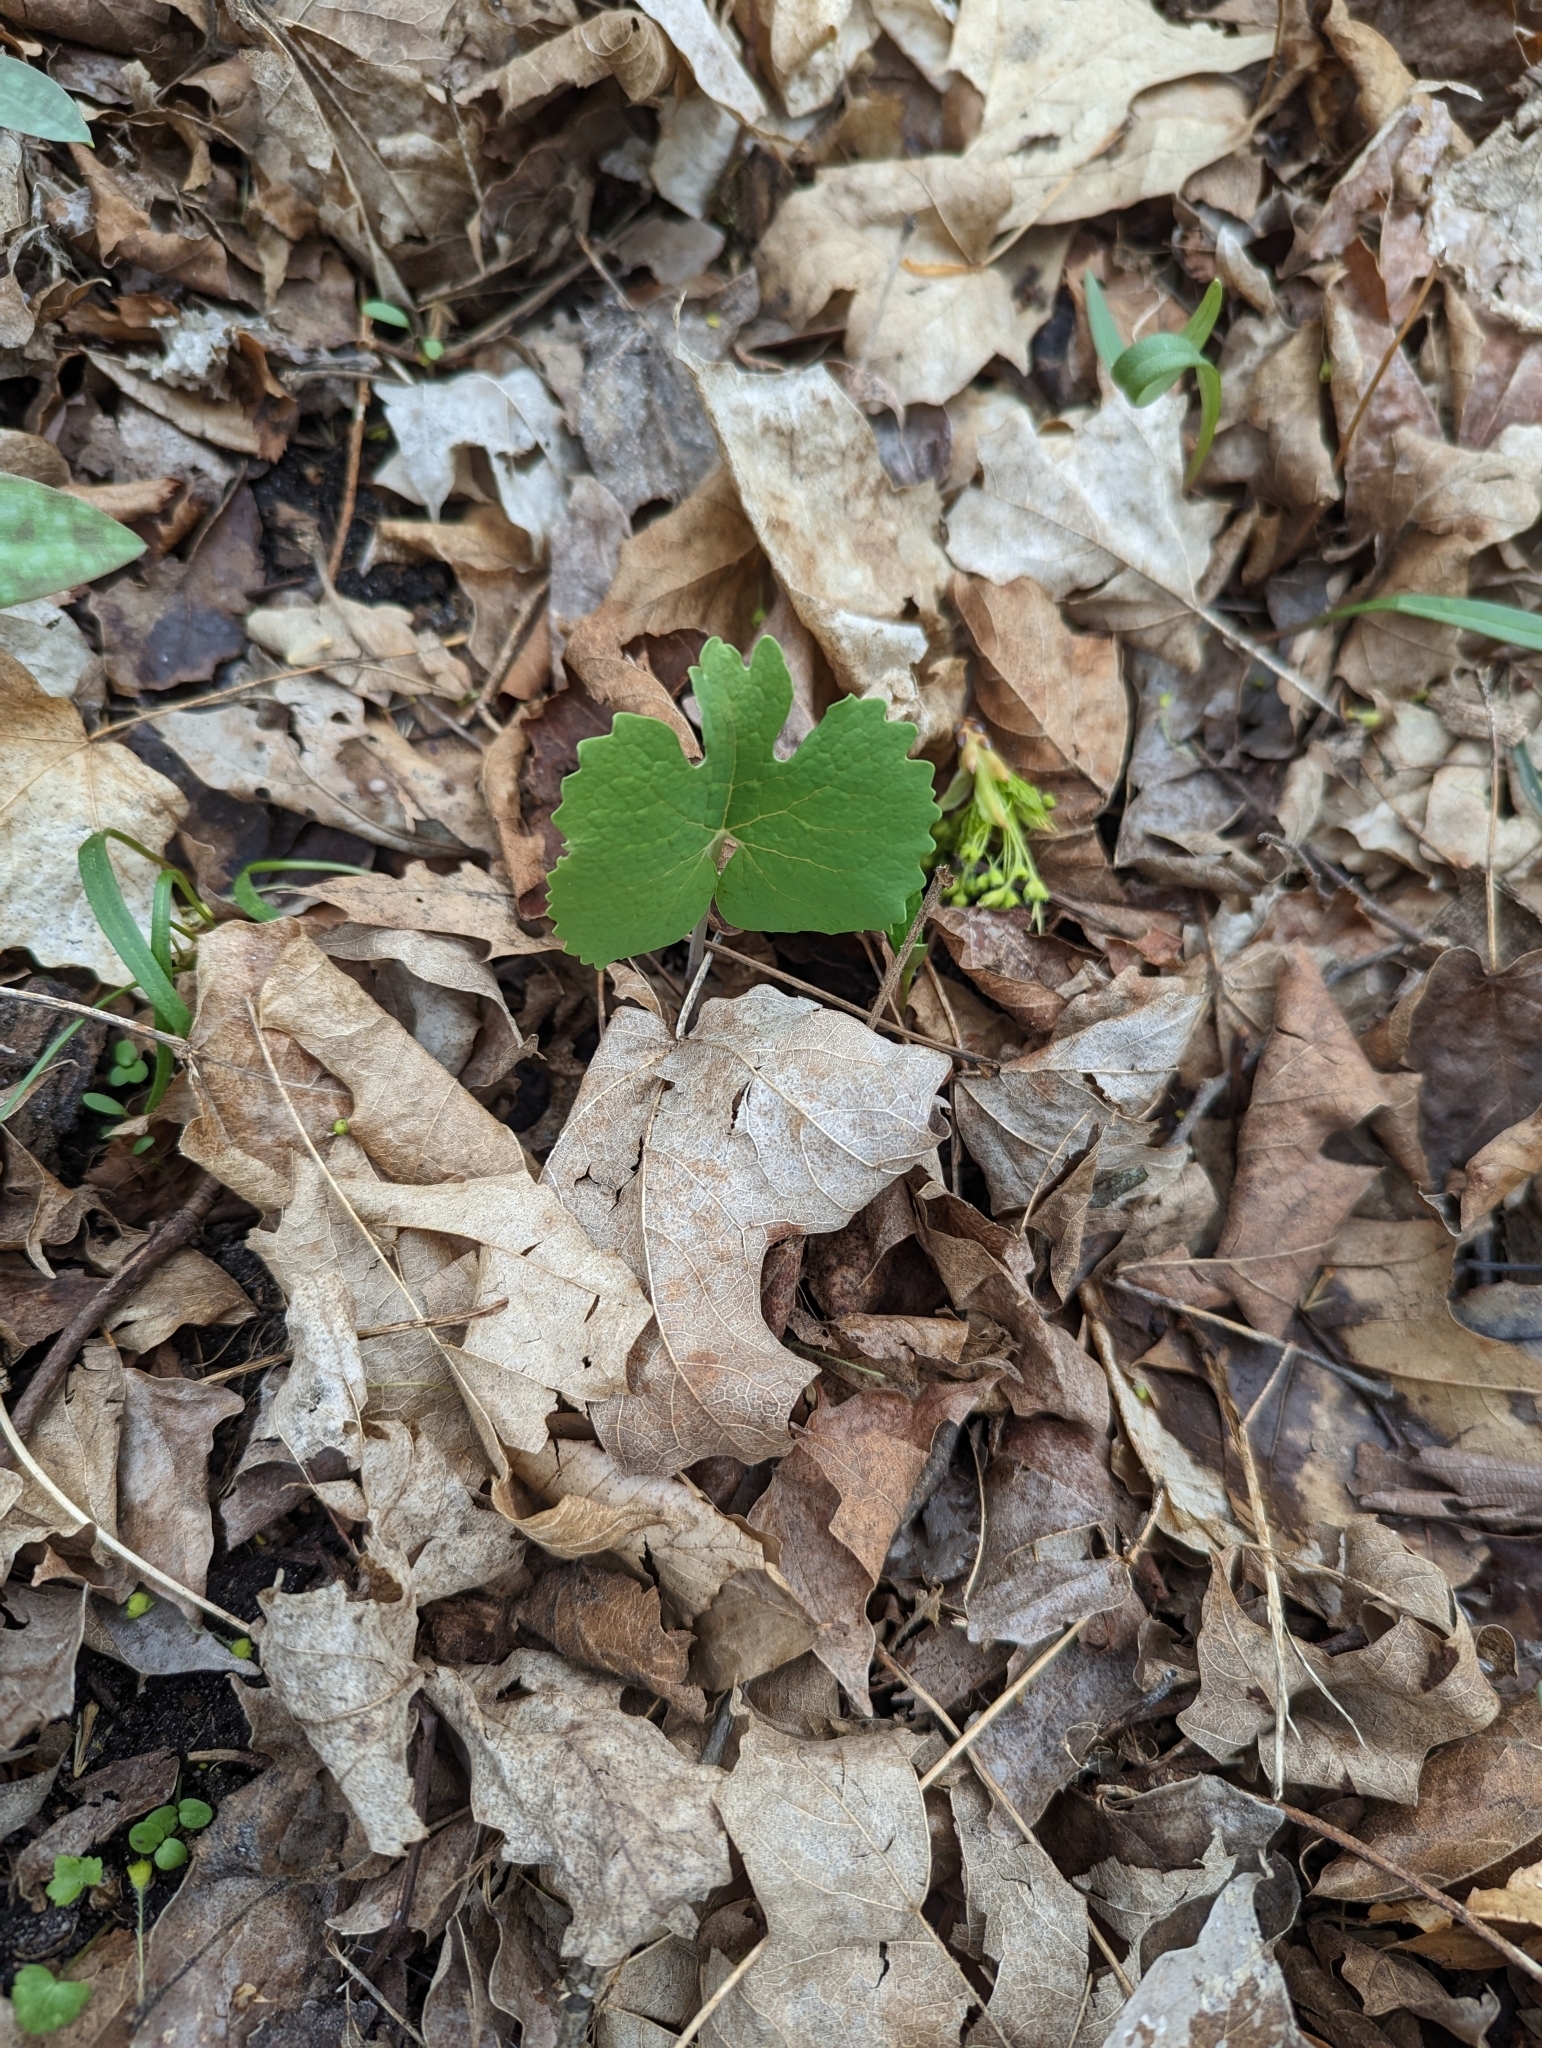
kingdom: Plantae
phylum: Tracheophyta
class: Magnoliopsida
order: Ranunculales
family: Papaveraceae
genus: Sanguinaria
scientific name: Sanguinaria canadensis
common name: Bloodroot
